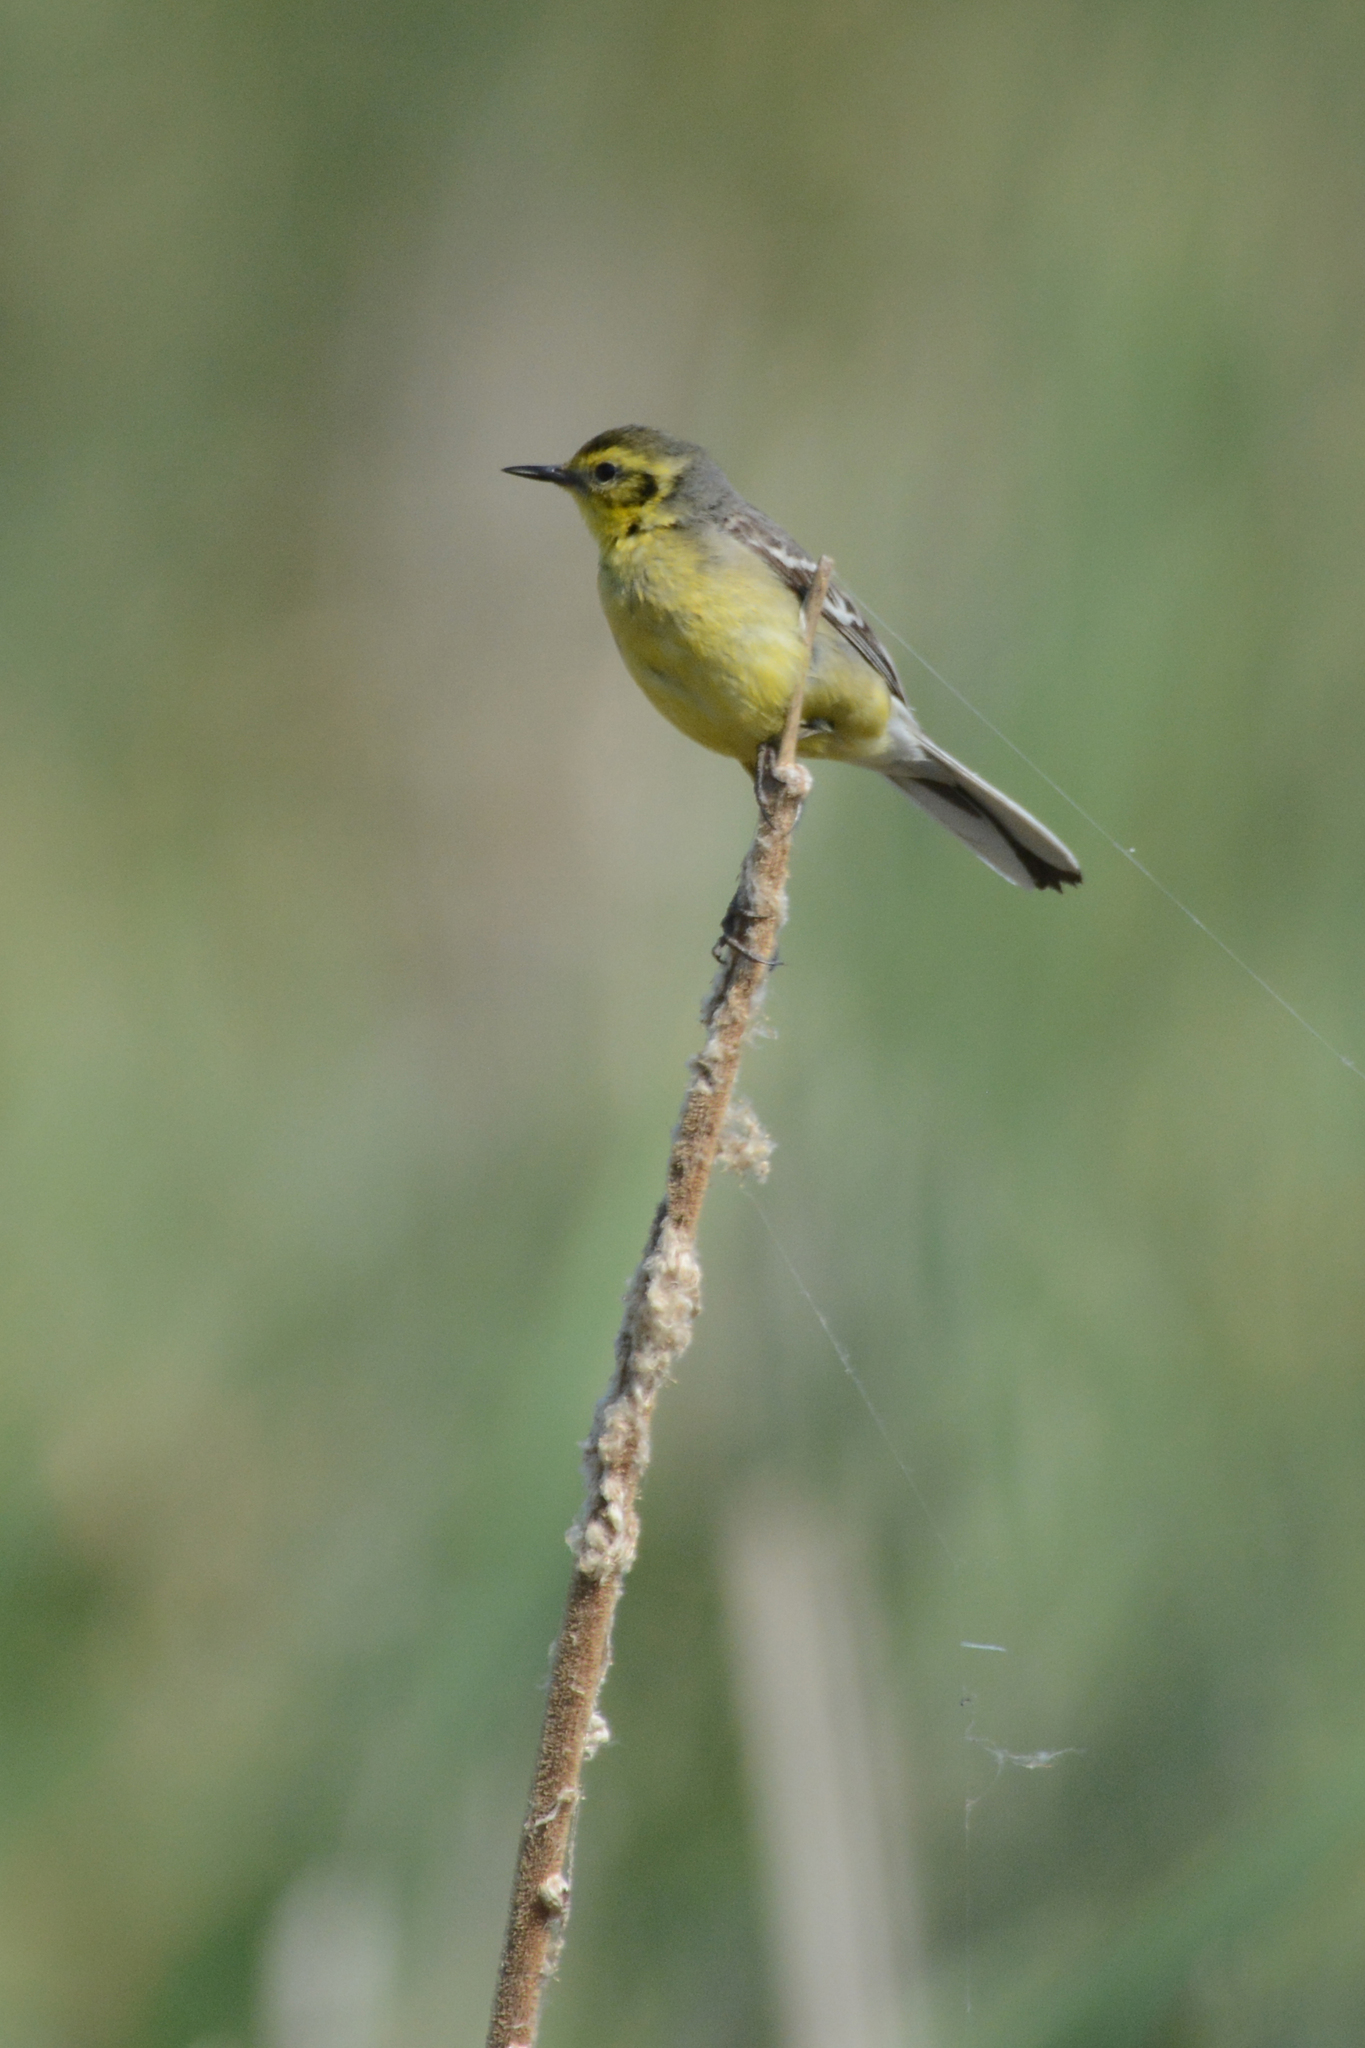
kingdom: Animalia
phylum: Chordata
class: Aves
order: Passeriformes
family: Motacillidae
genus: Motacilla
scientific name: Motacilla citreola
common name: Citrine wagtail
